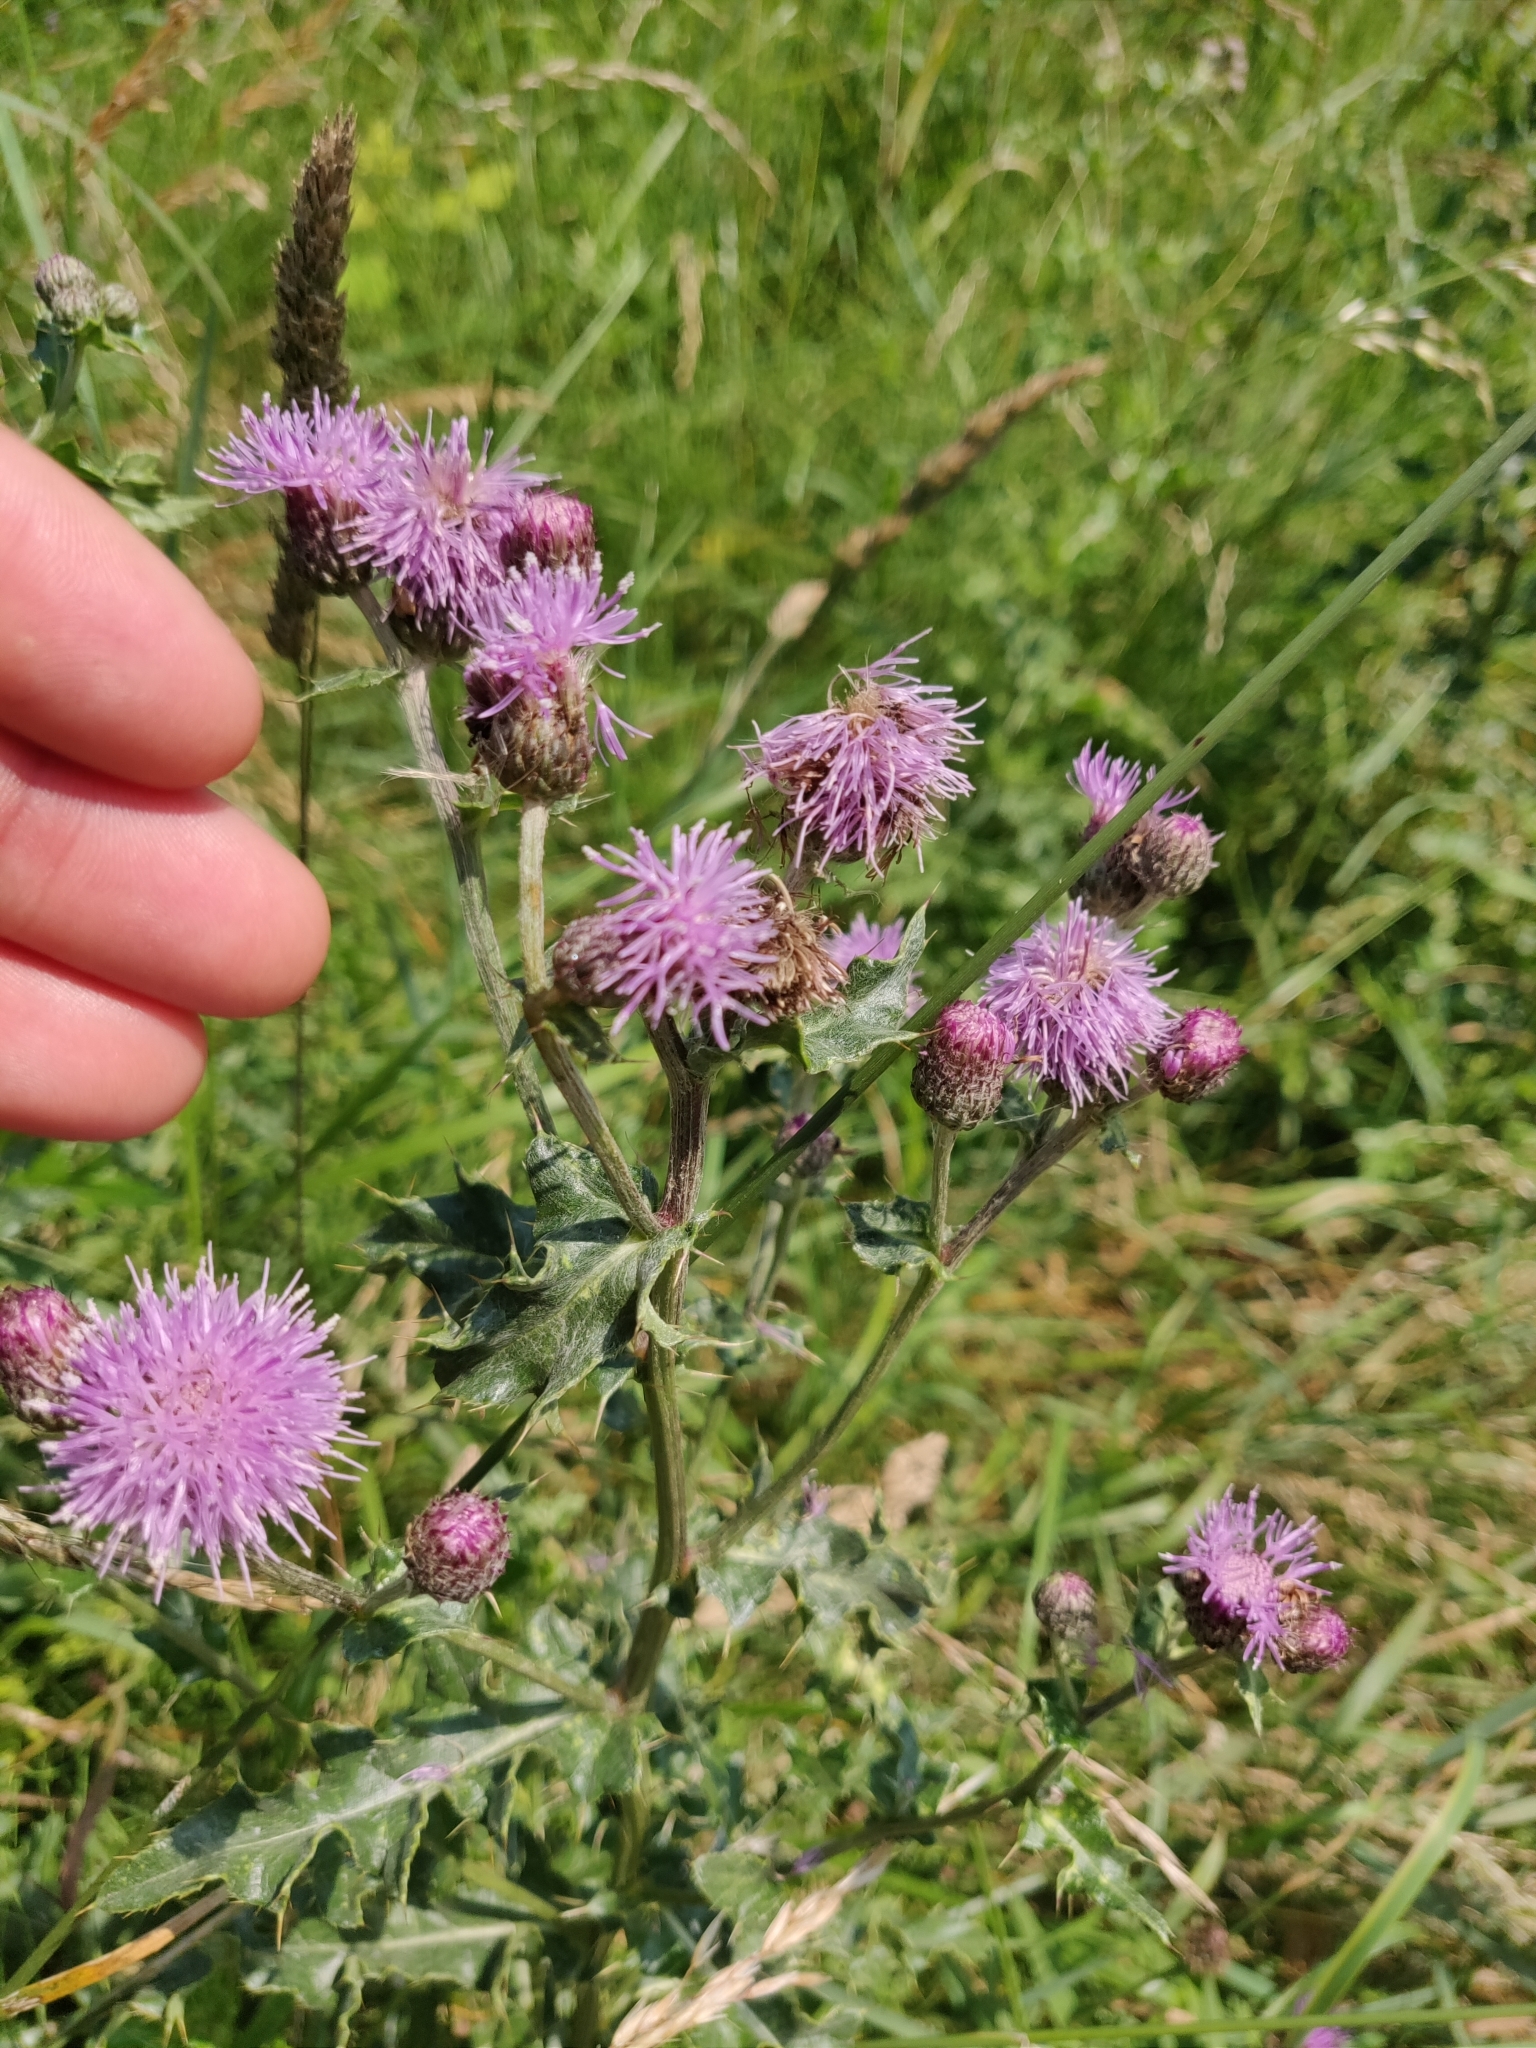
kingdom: Plantae
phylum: Tracheophyta
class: Magnoliopsida
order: Asterales
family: Asteraceae
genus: Cirsium
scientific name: Cirsium arvense
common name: Creeping thistle
